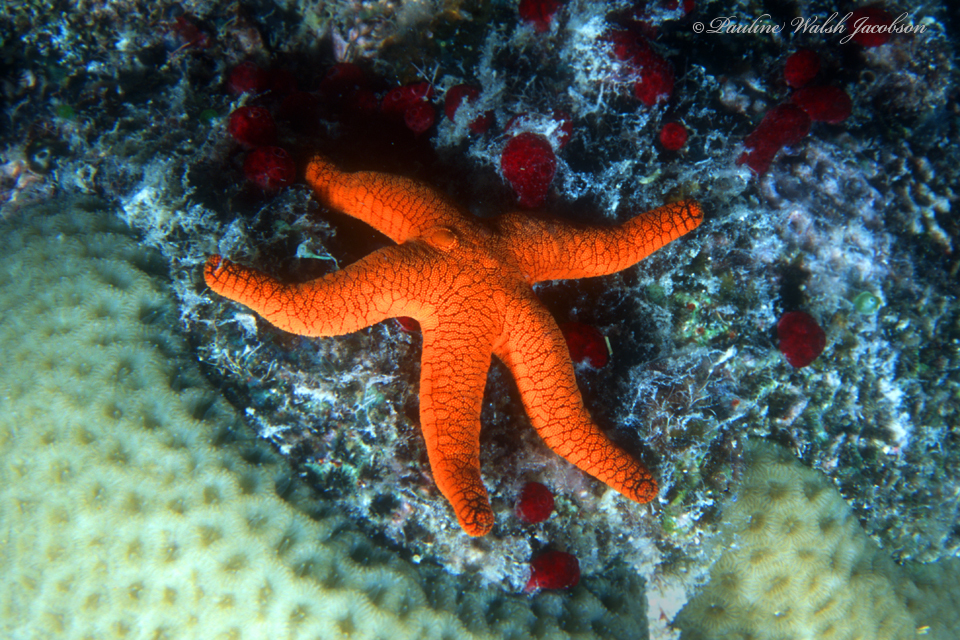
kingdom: Animalia
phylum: Echinodermata
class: Asteroidea
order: Valvatida
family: Goniasteridae
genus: Fromia
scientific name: Fromia indica
